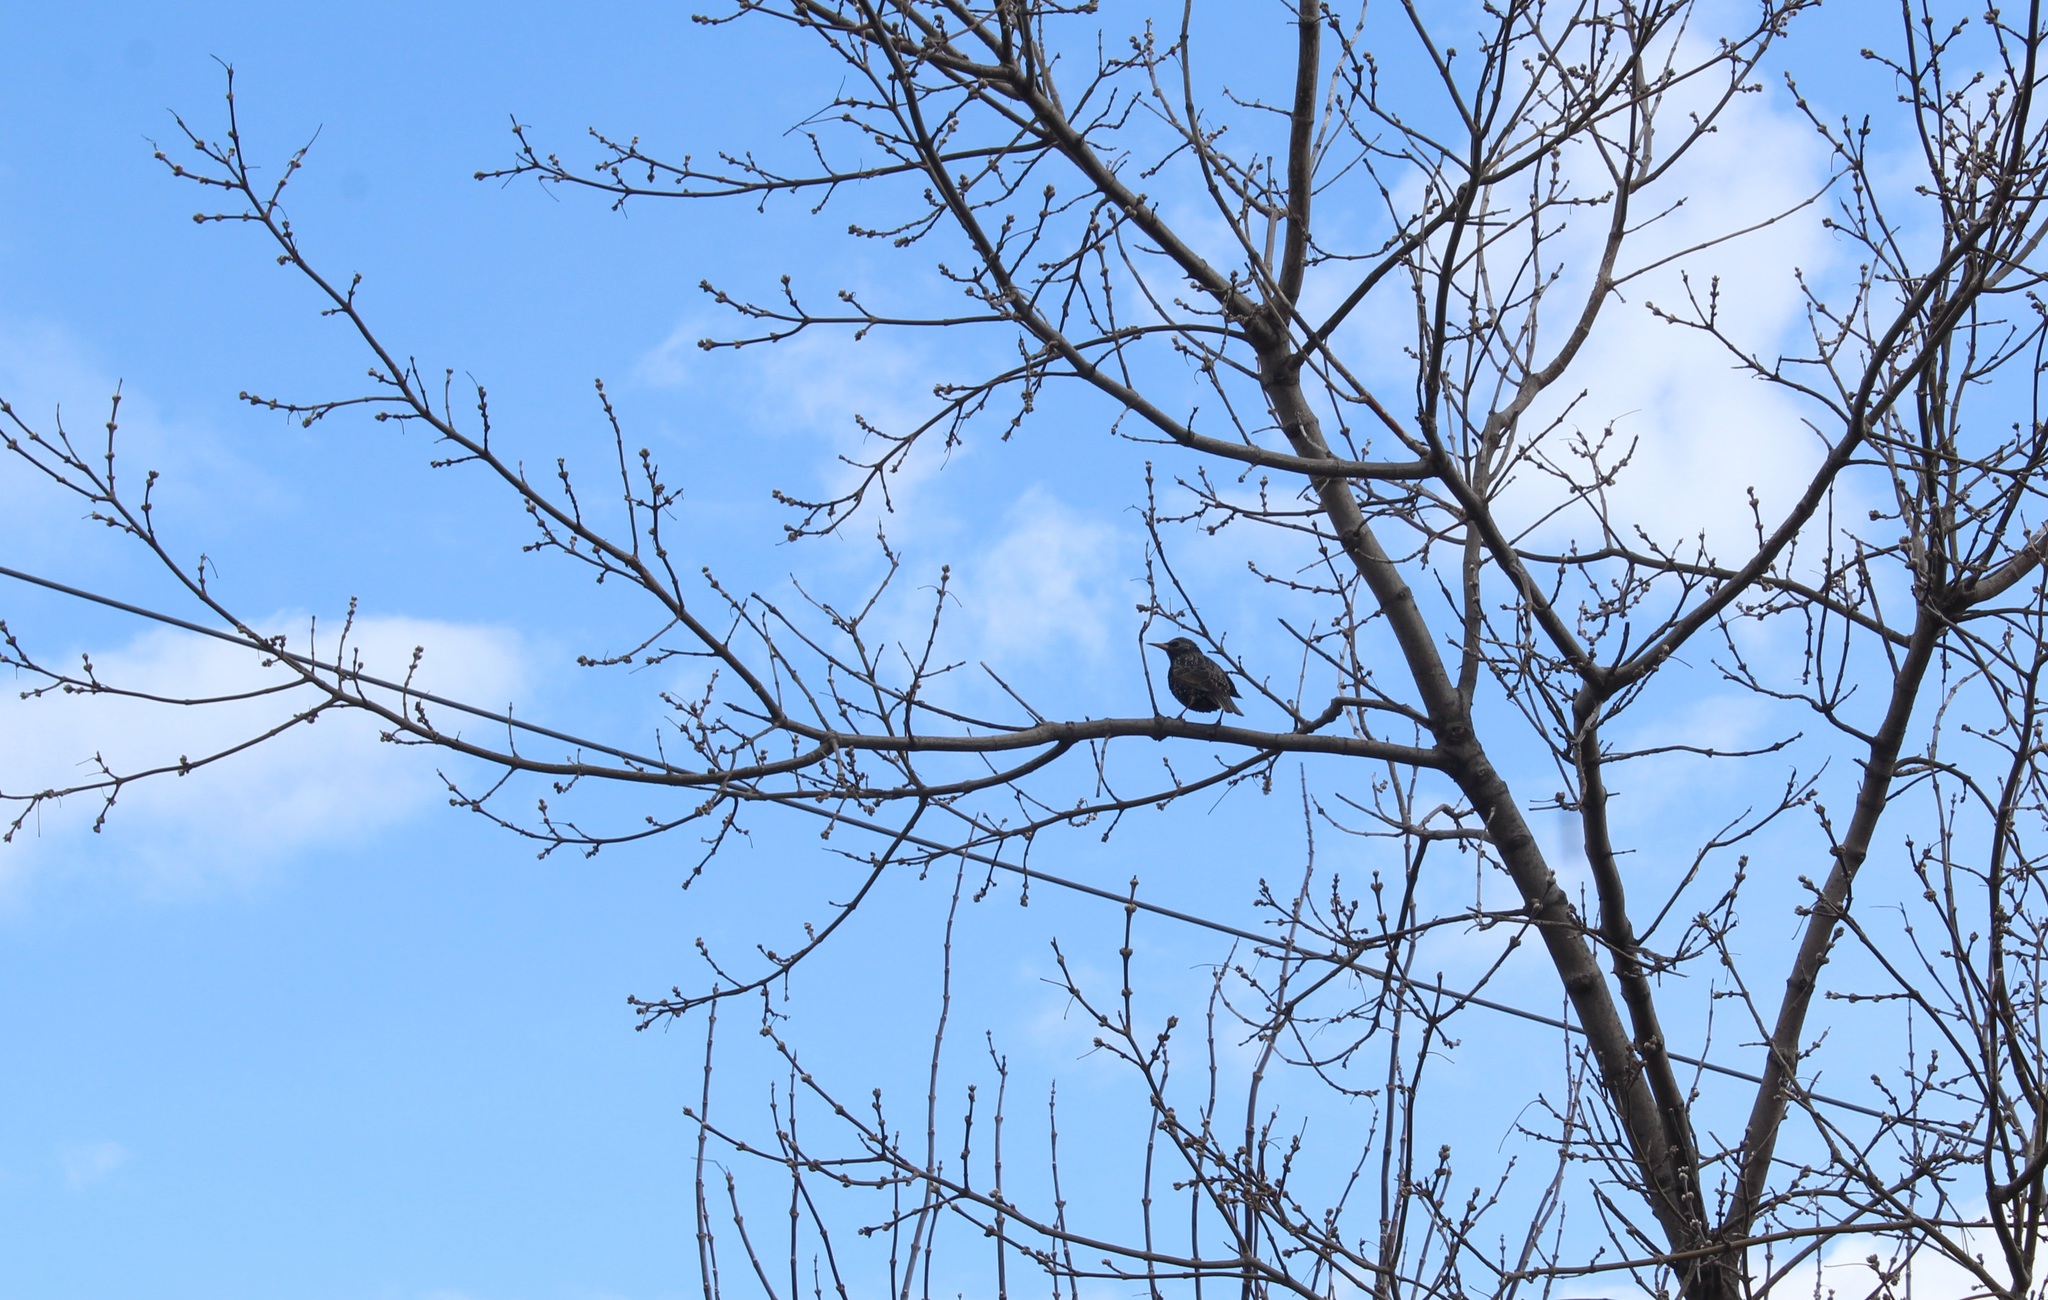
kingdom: Animalia
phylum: Chordata
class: Aves
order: Passeriformes
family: Sturnidae
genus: Sturnus
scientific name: Sturnus vulgaris
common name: Common starling
